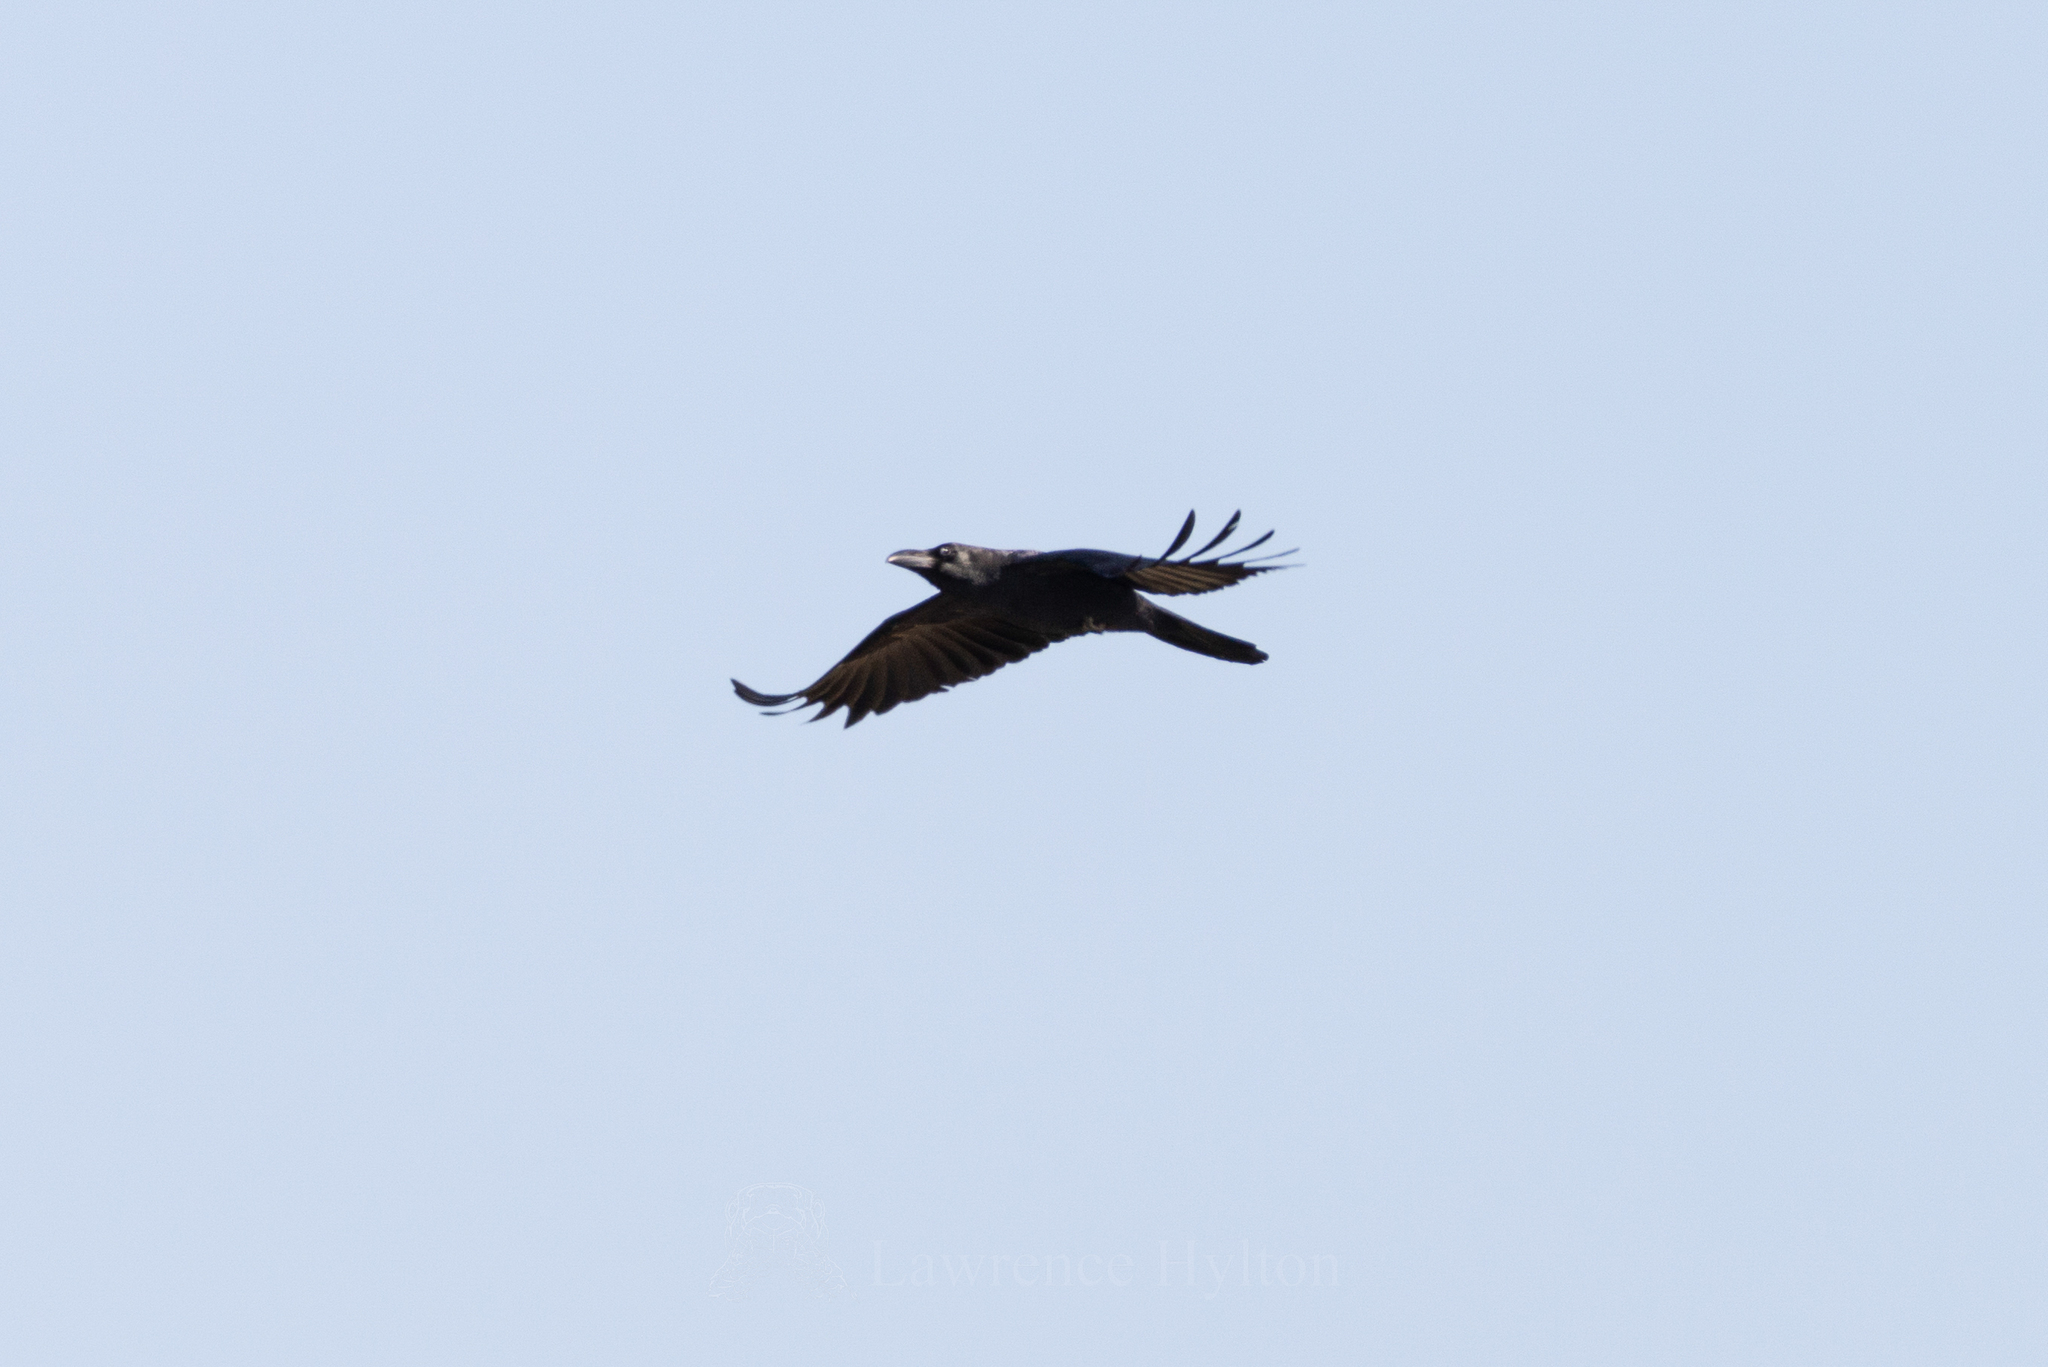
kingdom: Animalia
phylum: Chordata
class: Aves
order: Passeriformes
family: Corvidae
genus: Corvus
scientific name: Corvus macrorhynchos
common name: Large-billed crow
